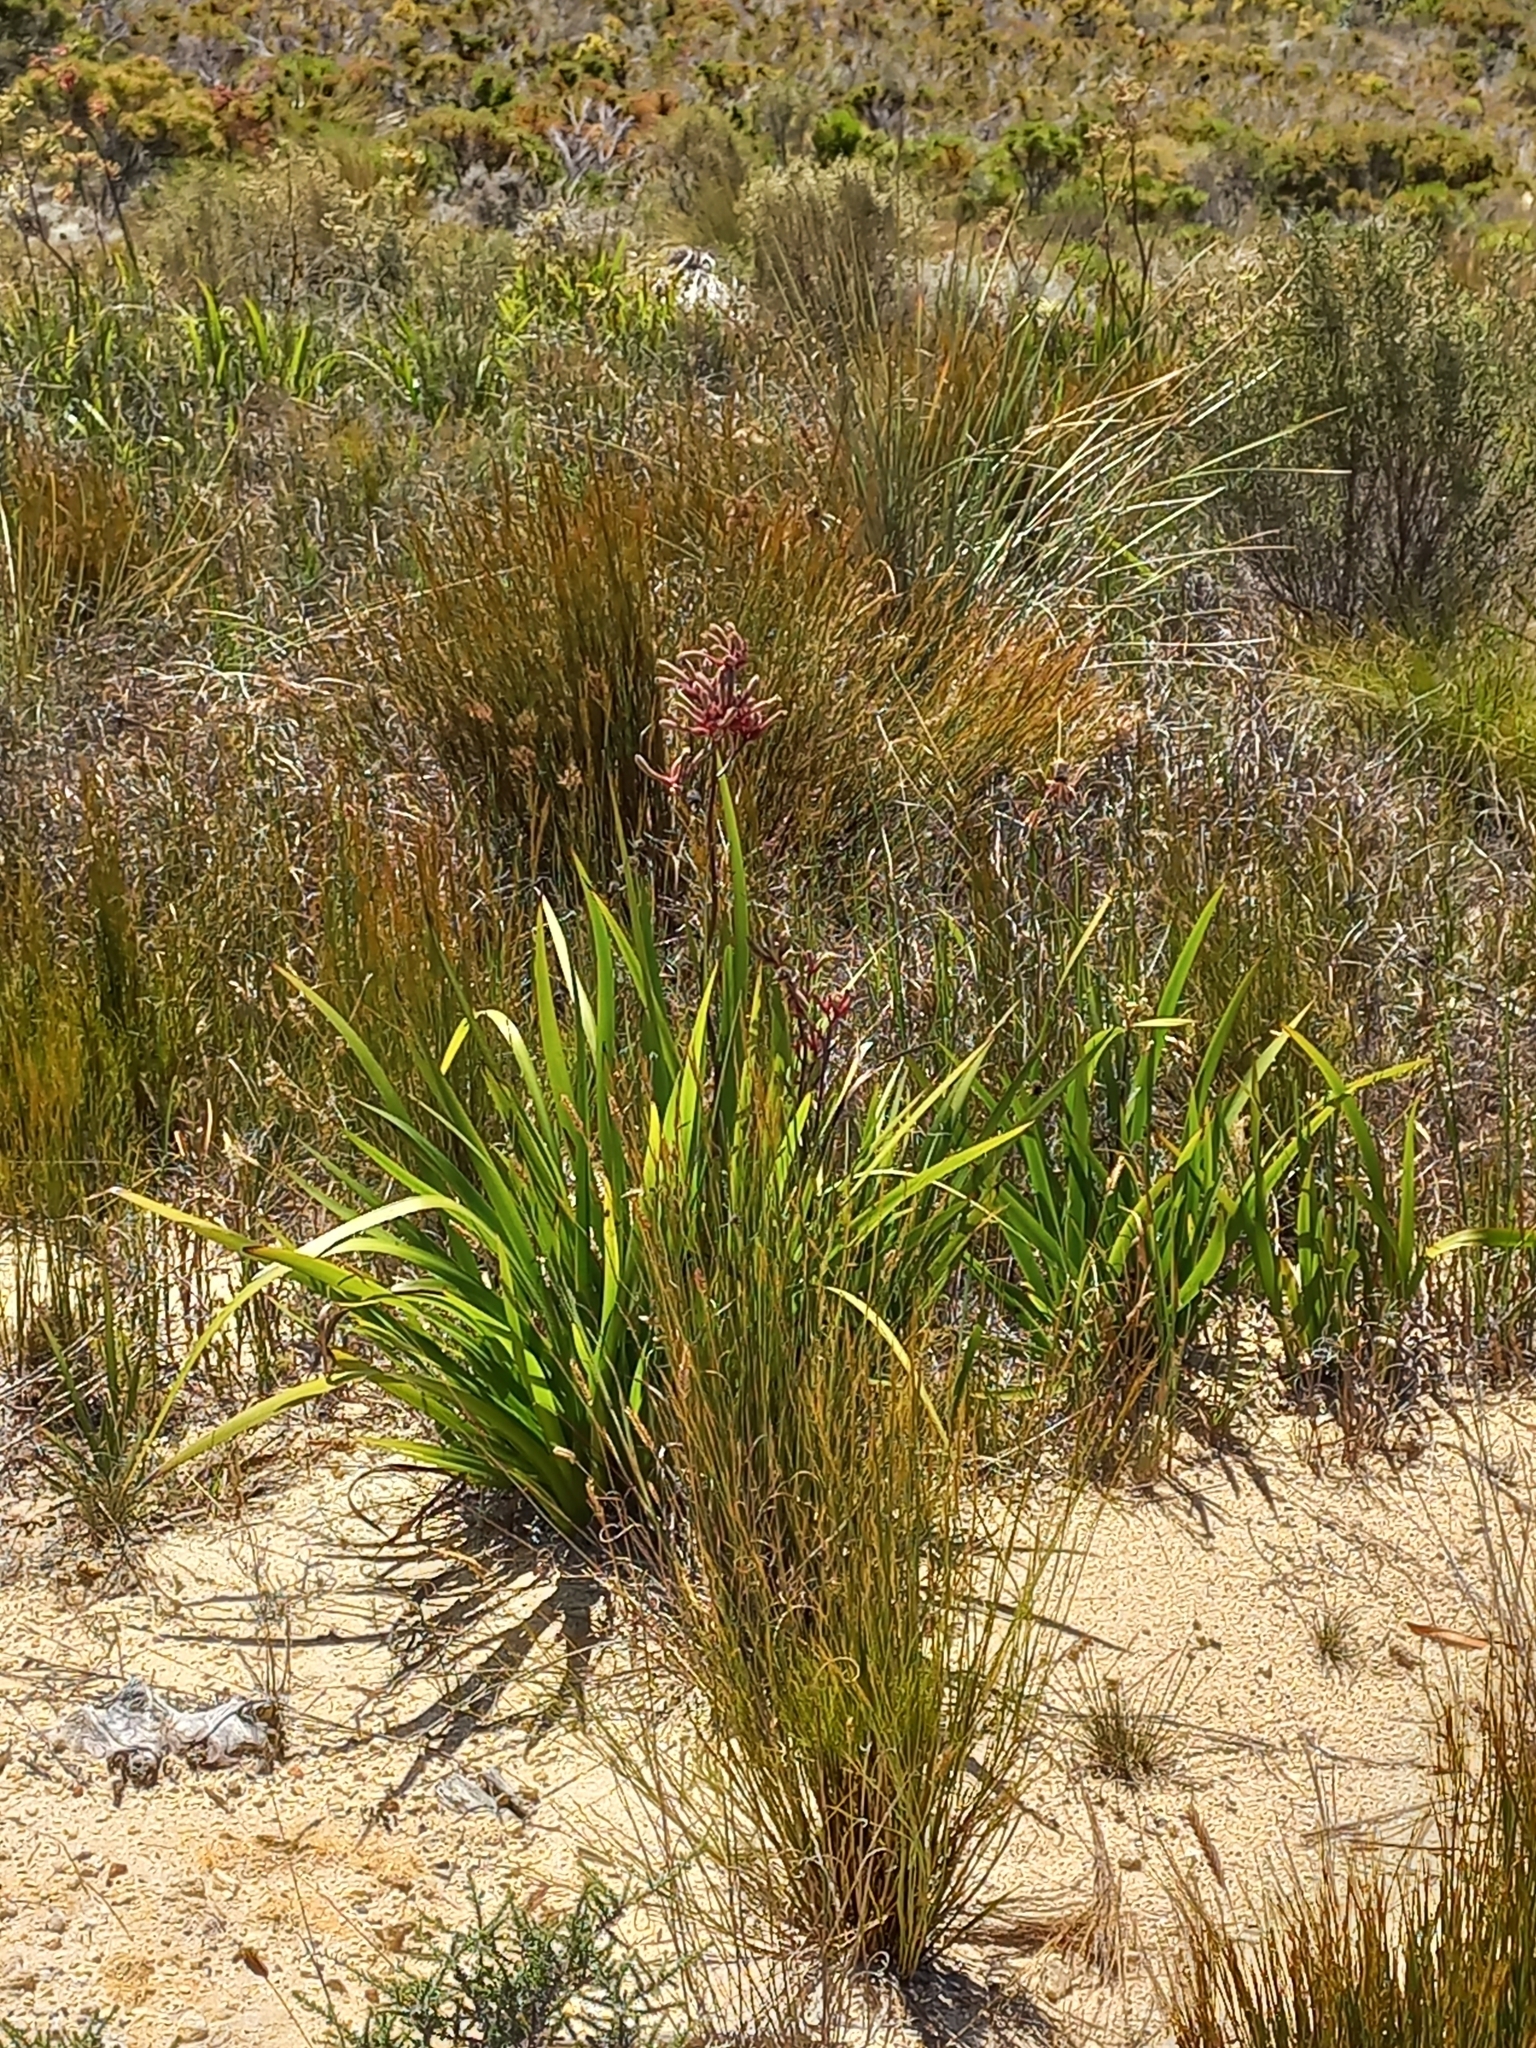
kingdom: Plantae
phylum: Tracheophyta
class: Liliopsida
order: Commelinales
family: Haemodoraceae
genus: Anigozanthos
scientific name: Anigozanthos flavidus
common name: Evergreen kangaroo-paw
